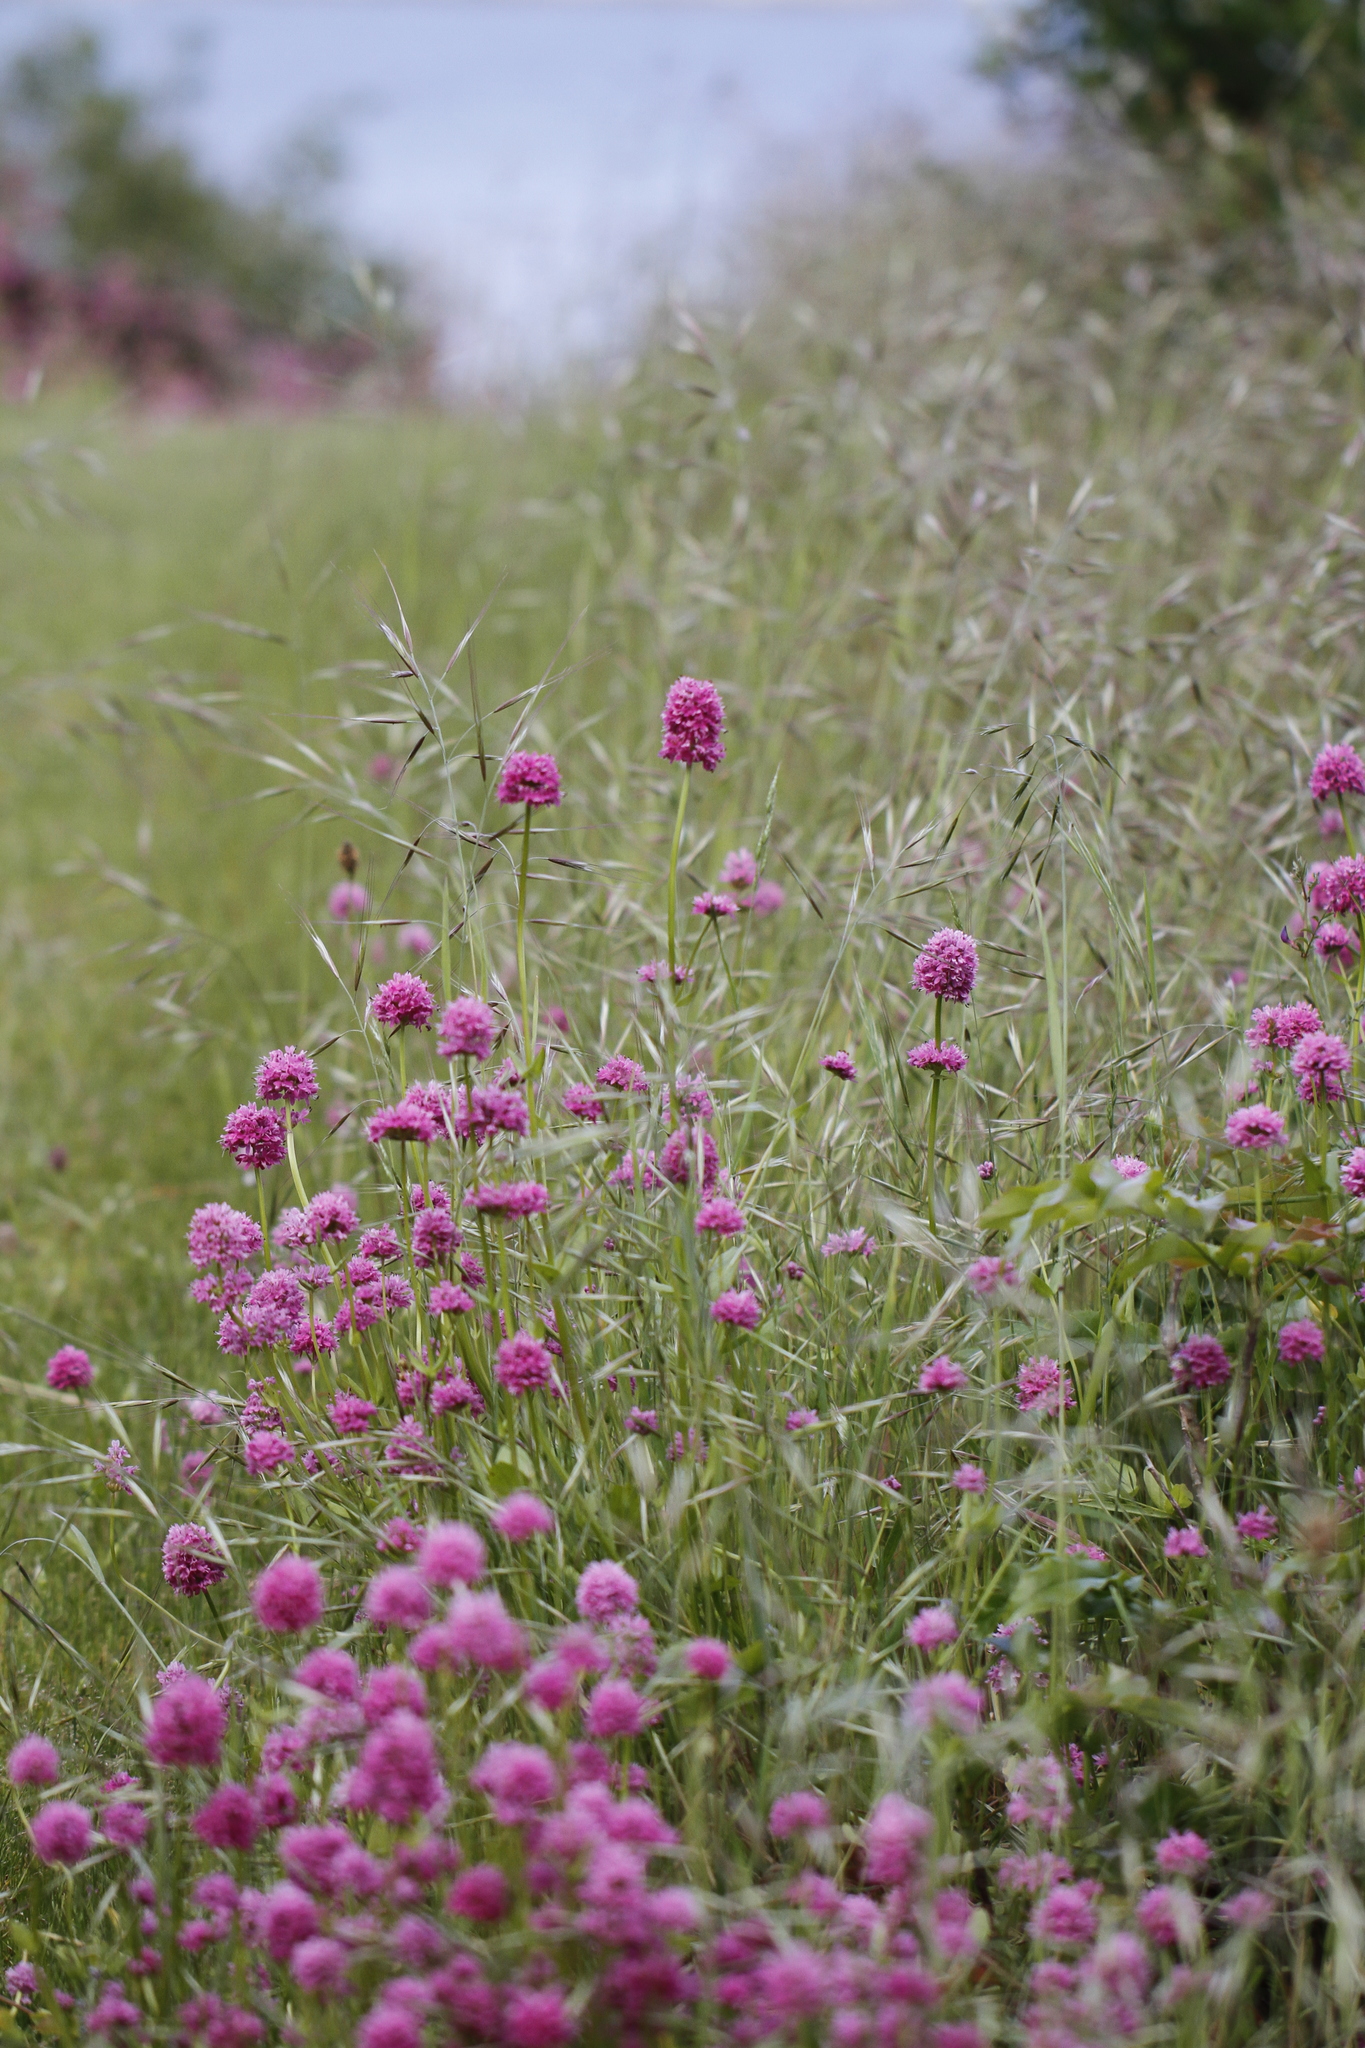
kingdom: Plantae
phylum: Tracheophyta
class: Magnoliopsida
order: Dipsacales
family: Caprifoliaceae
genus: Plectritis
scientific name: Plectritis congesta
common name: Pink plectritis
